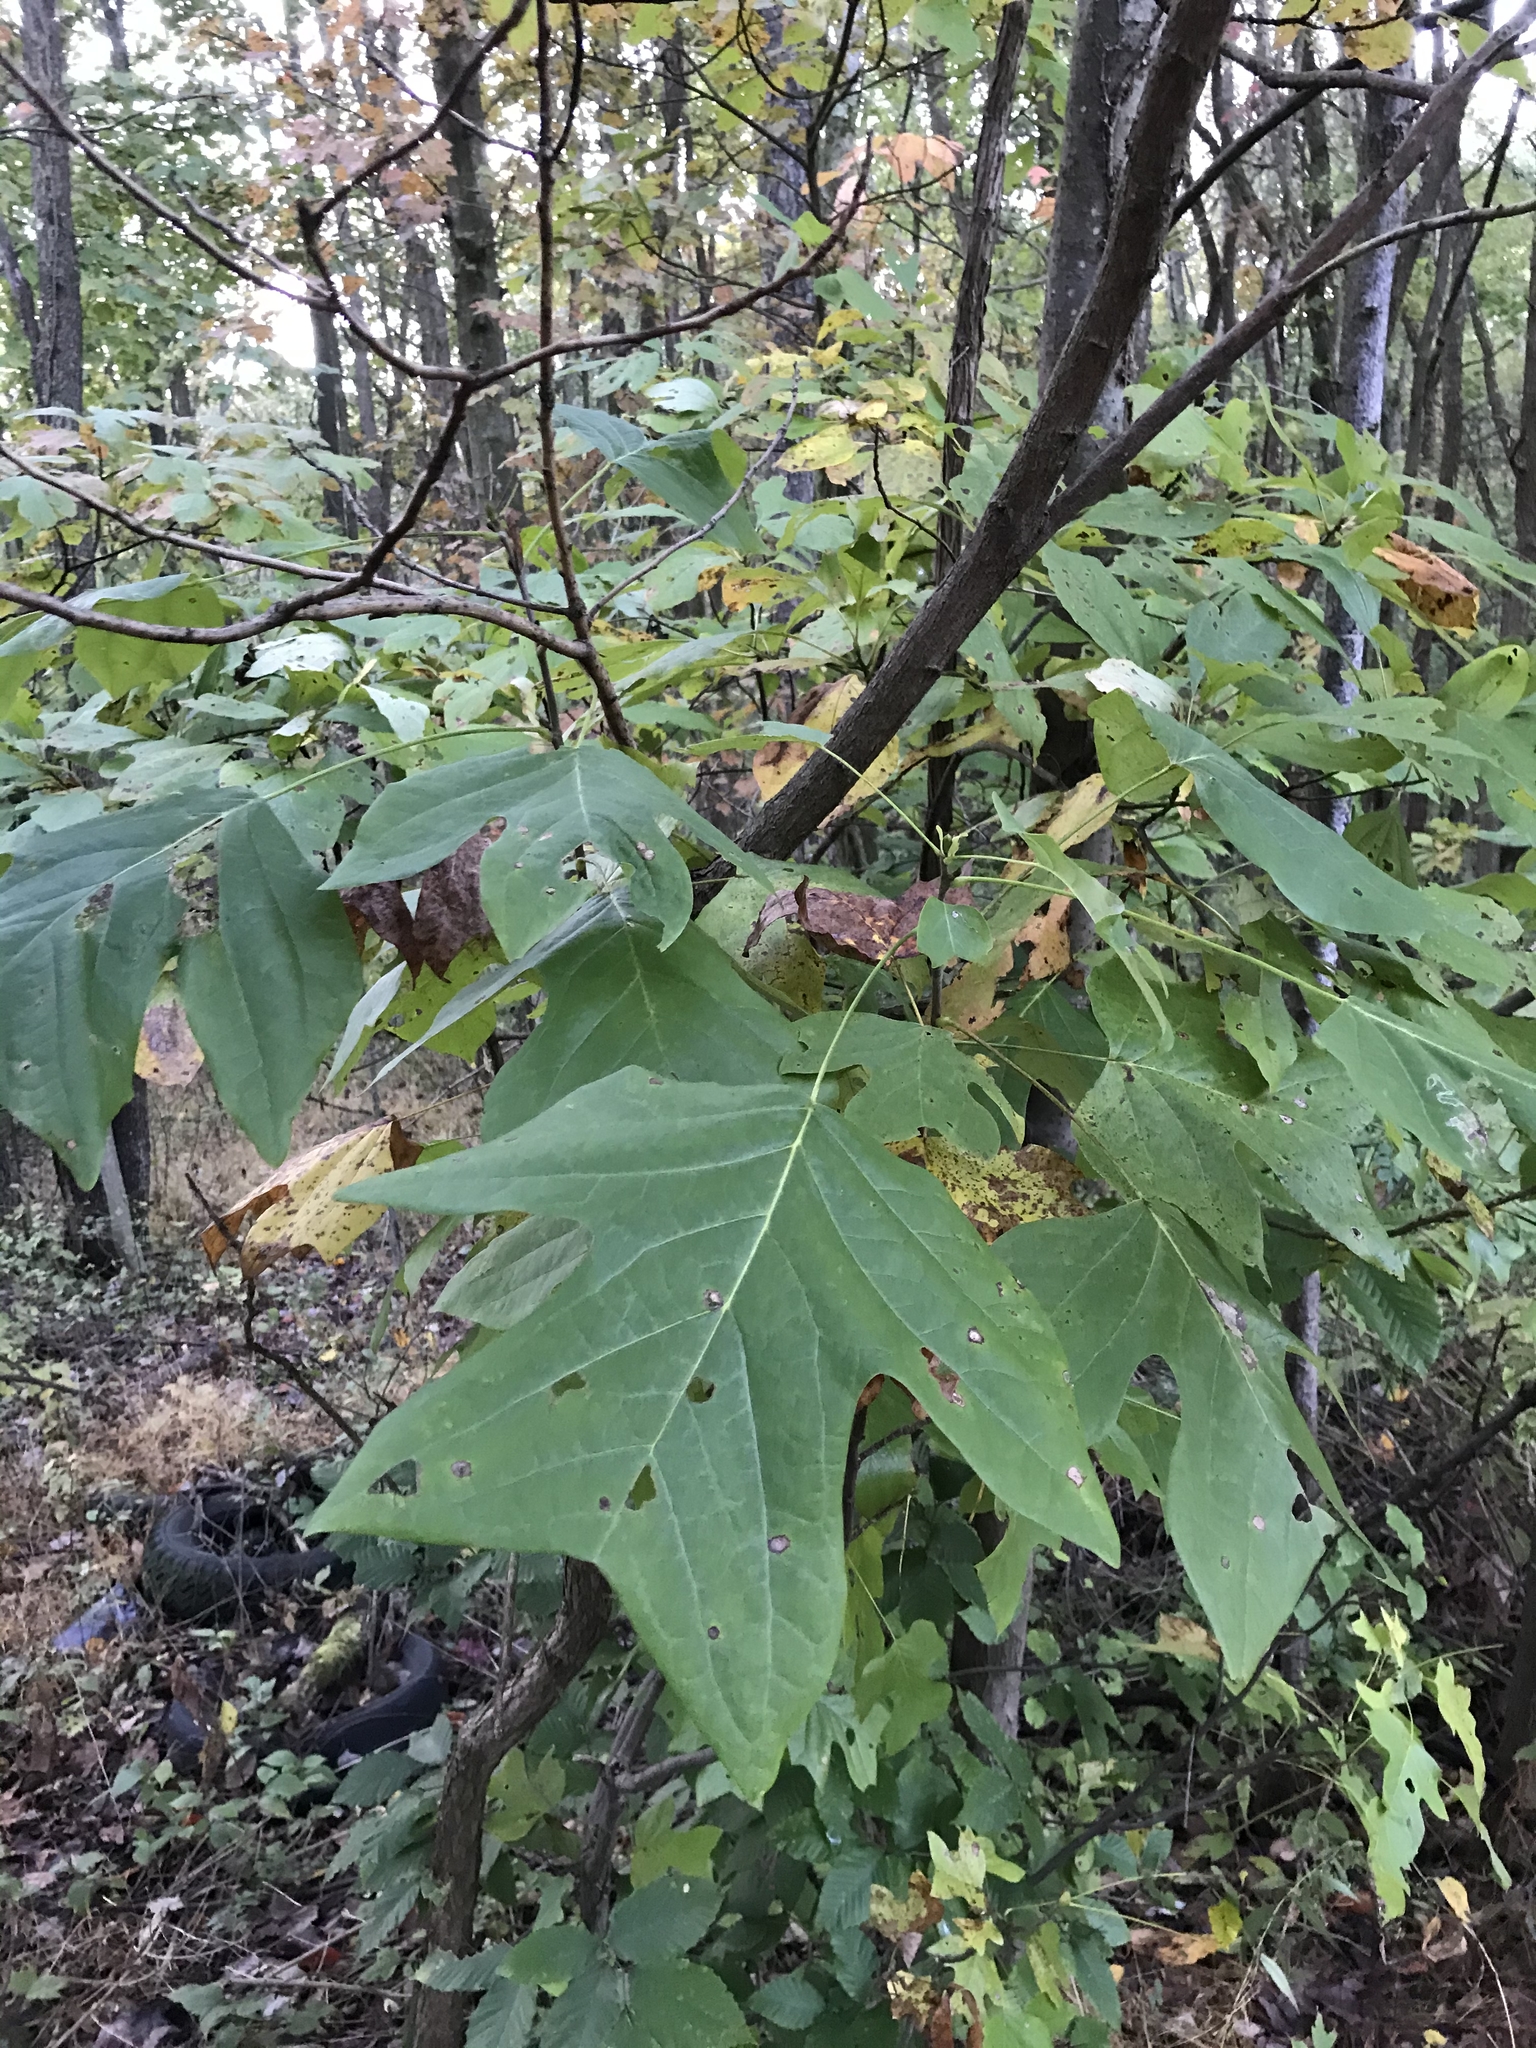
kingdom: Plantae
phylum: Tracheophyta
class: Magnoliopsida
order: Magnoliales
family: Magnoliaceae
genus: Liriodendron
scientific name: Liriodendron tulipifera
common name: Tulip tree
